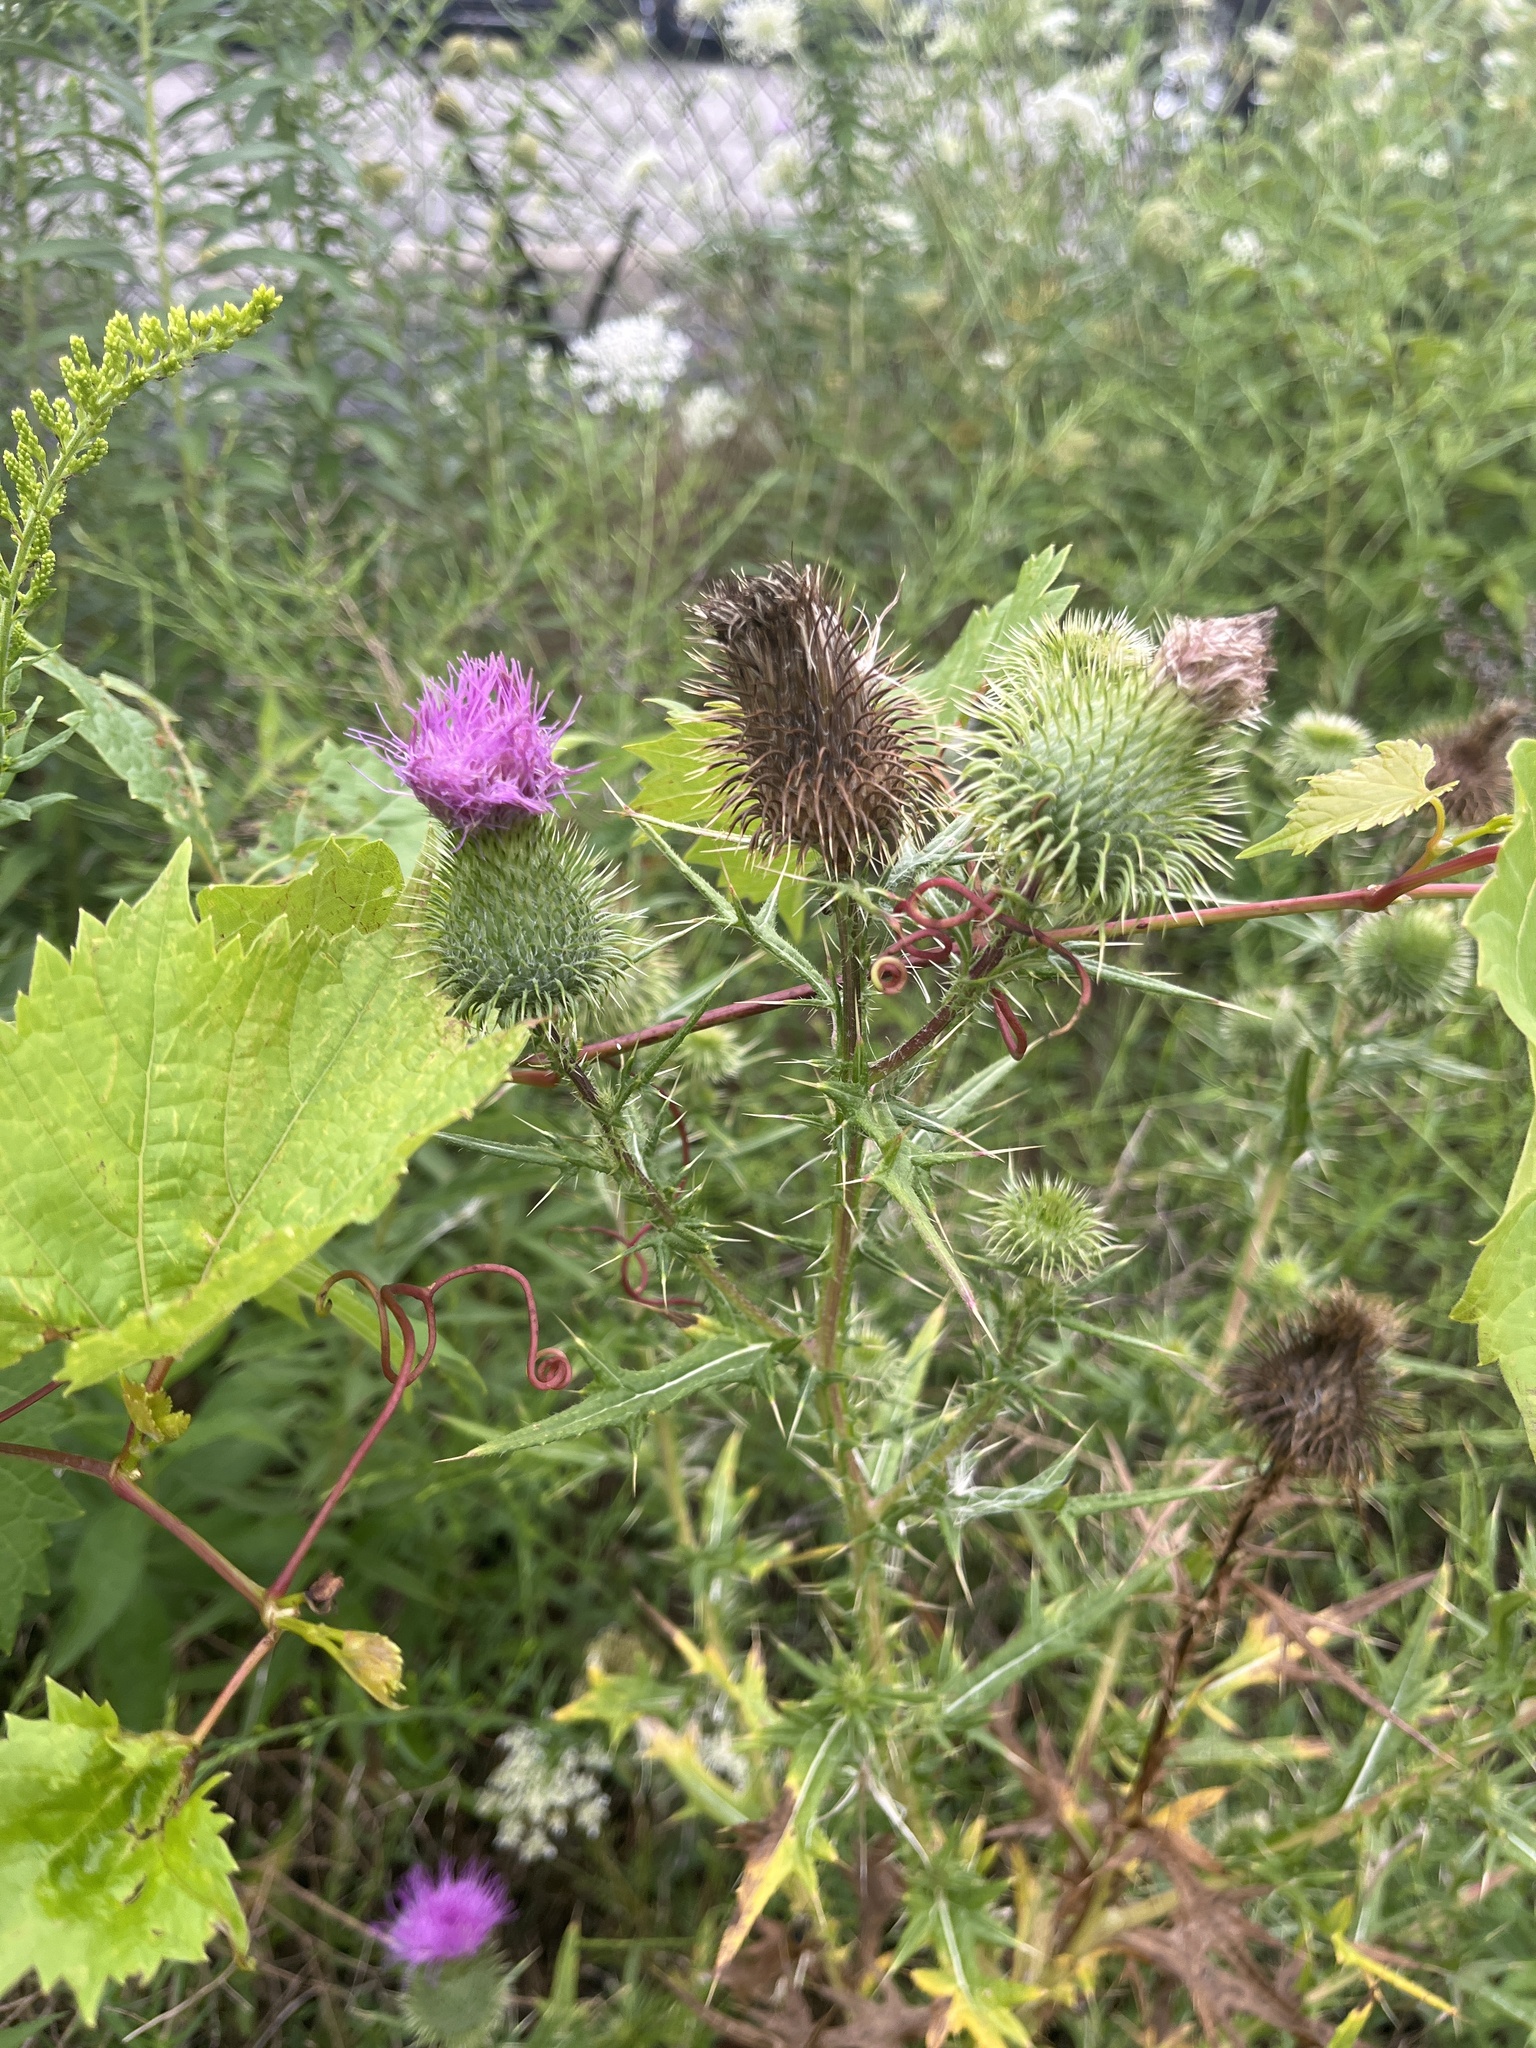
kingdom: Plantae
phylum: Tracheophyta
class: Magnoliopsida
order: Asterales
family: Asteraceae
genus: Cirsium
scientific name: Cirsium vulgare
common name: Bull thistle
